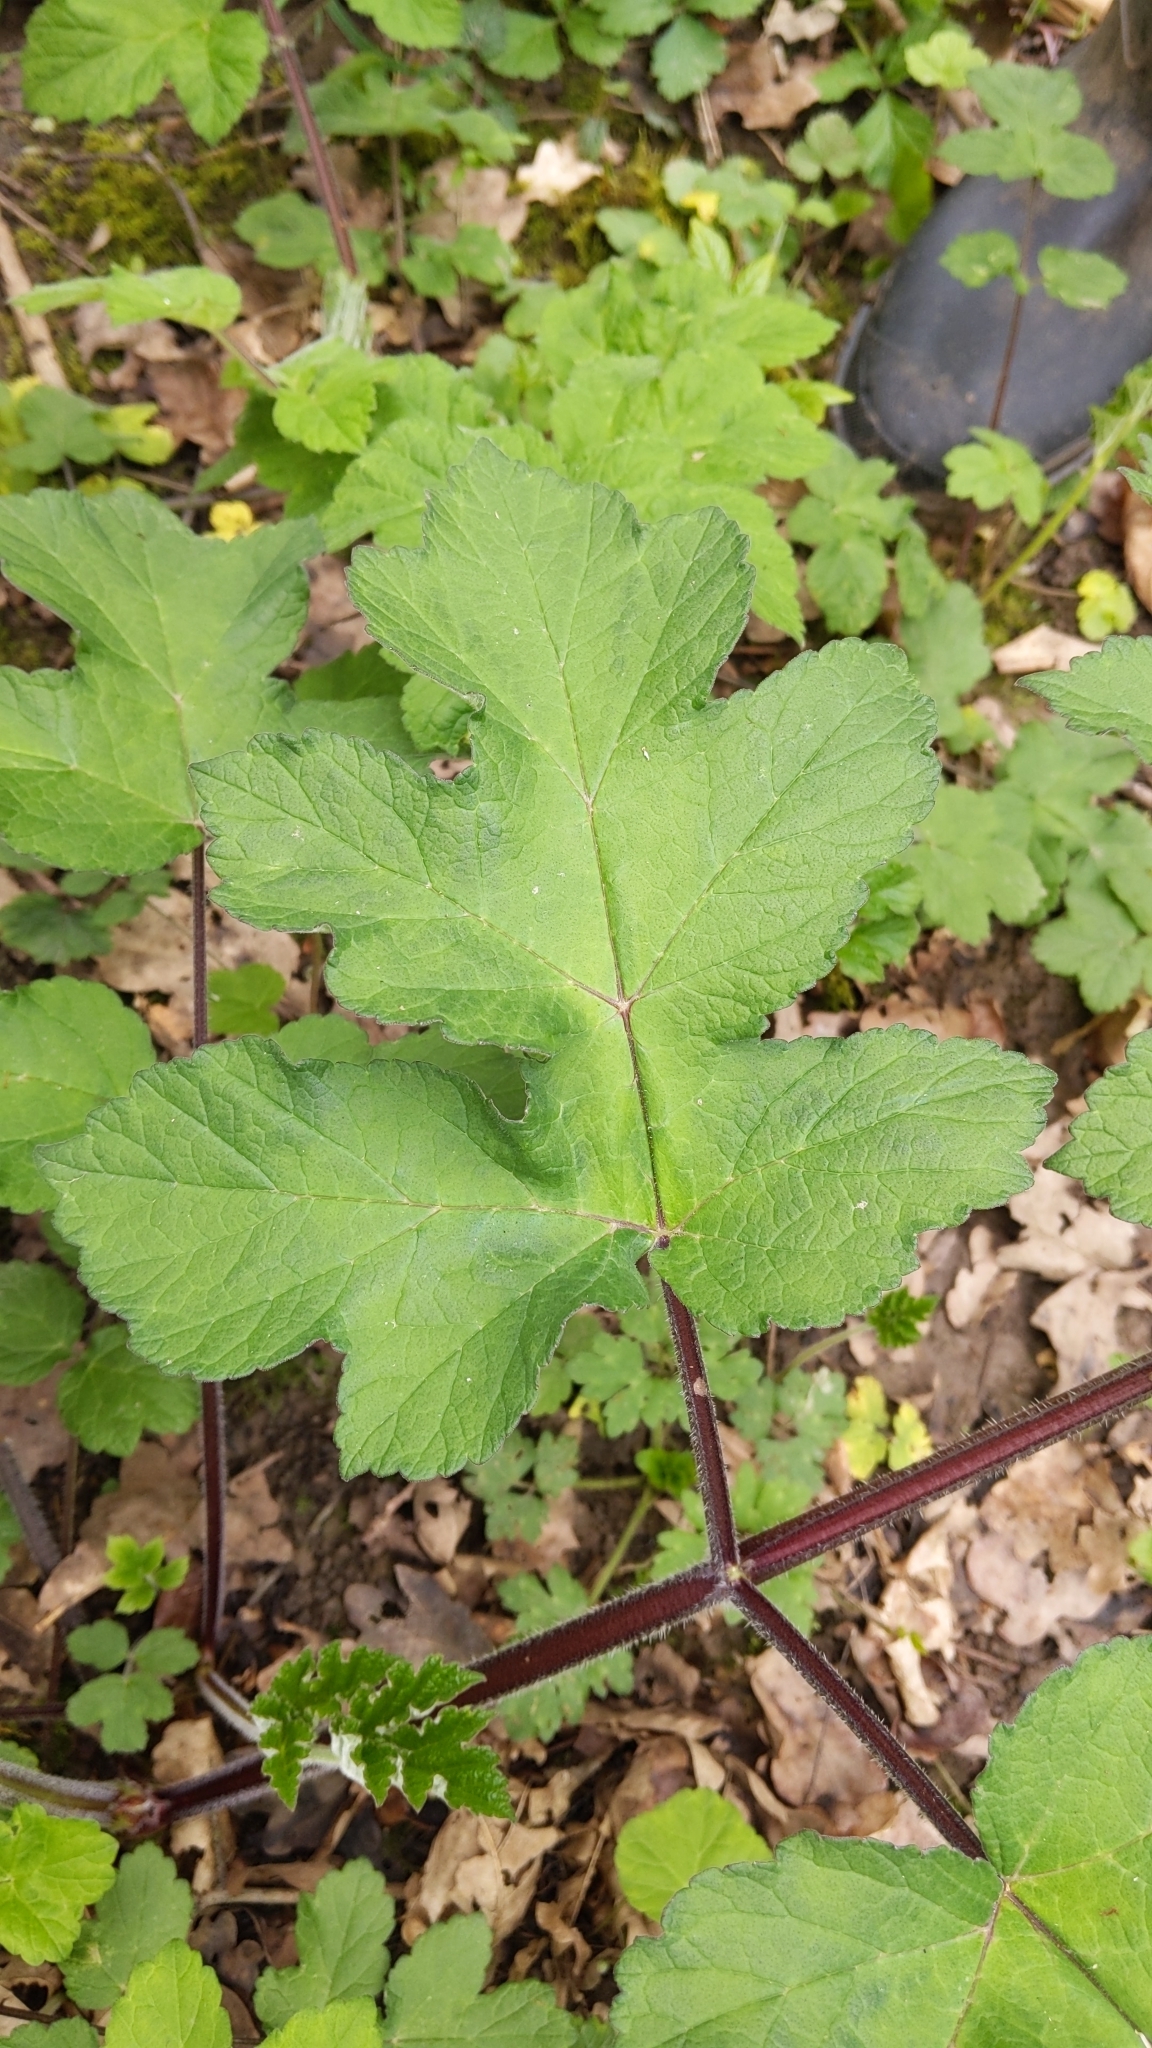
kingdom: Plantae
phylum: Tracheophyta
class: Magnoliopsida
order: Apiales
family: Apiaceae
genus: Heracleum
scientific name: Heracleum sphondylium
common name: Hogweed
